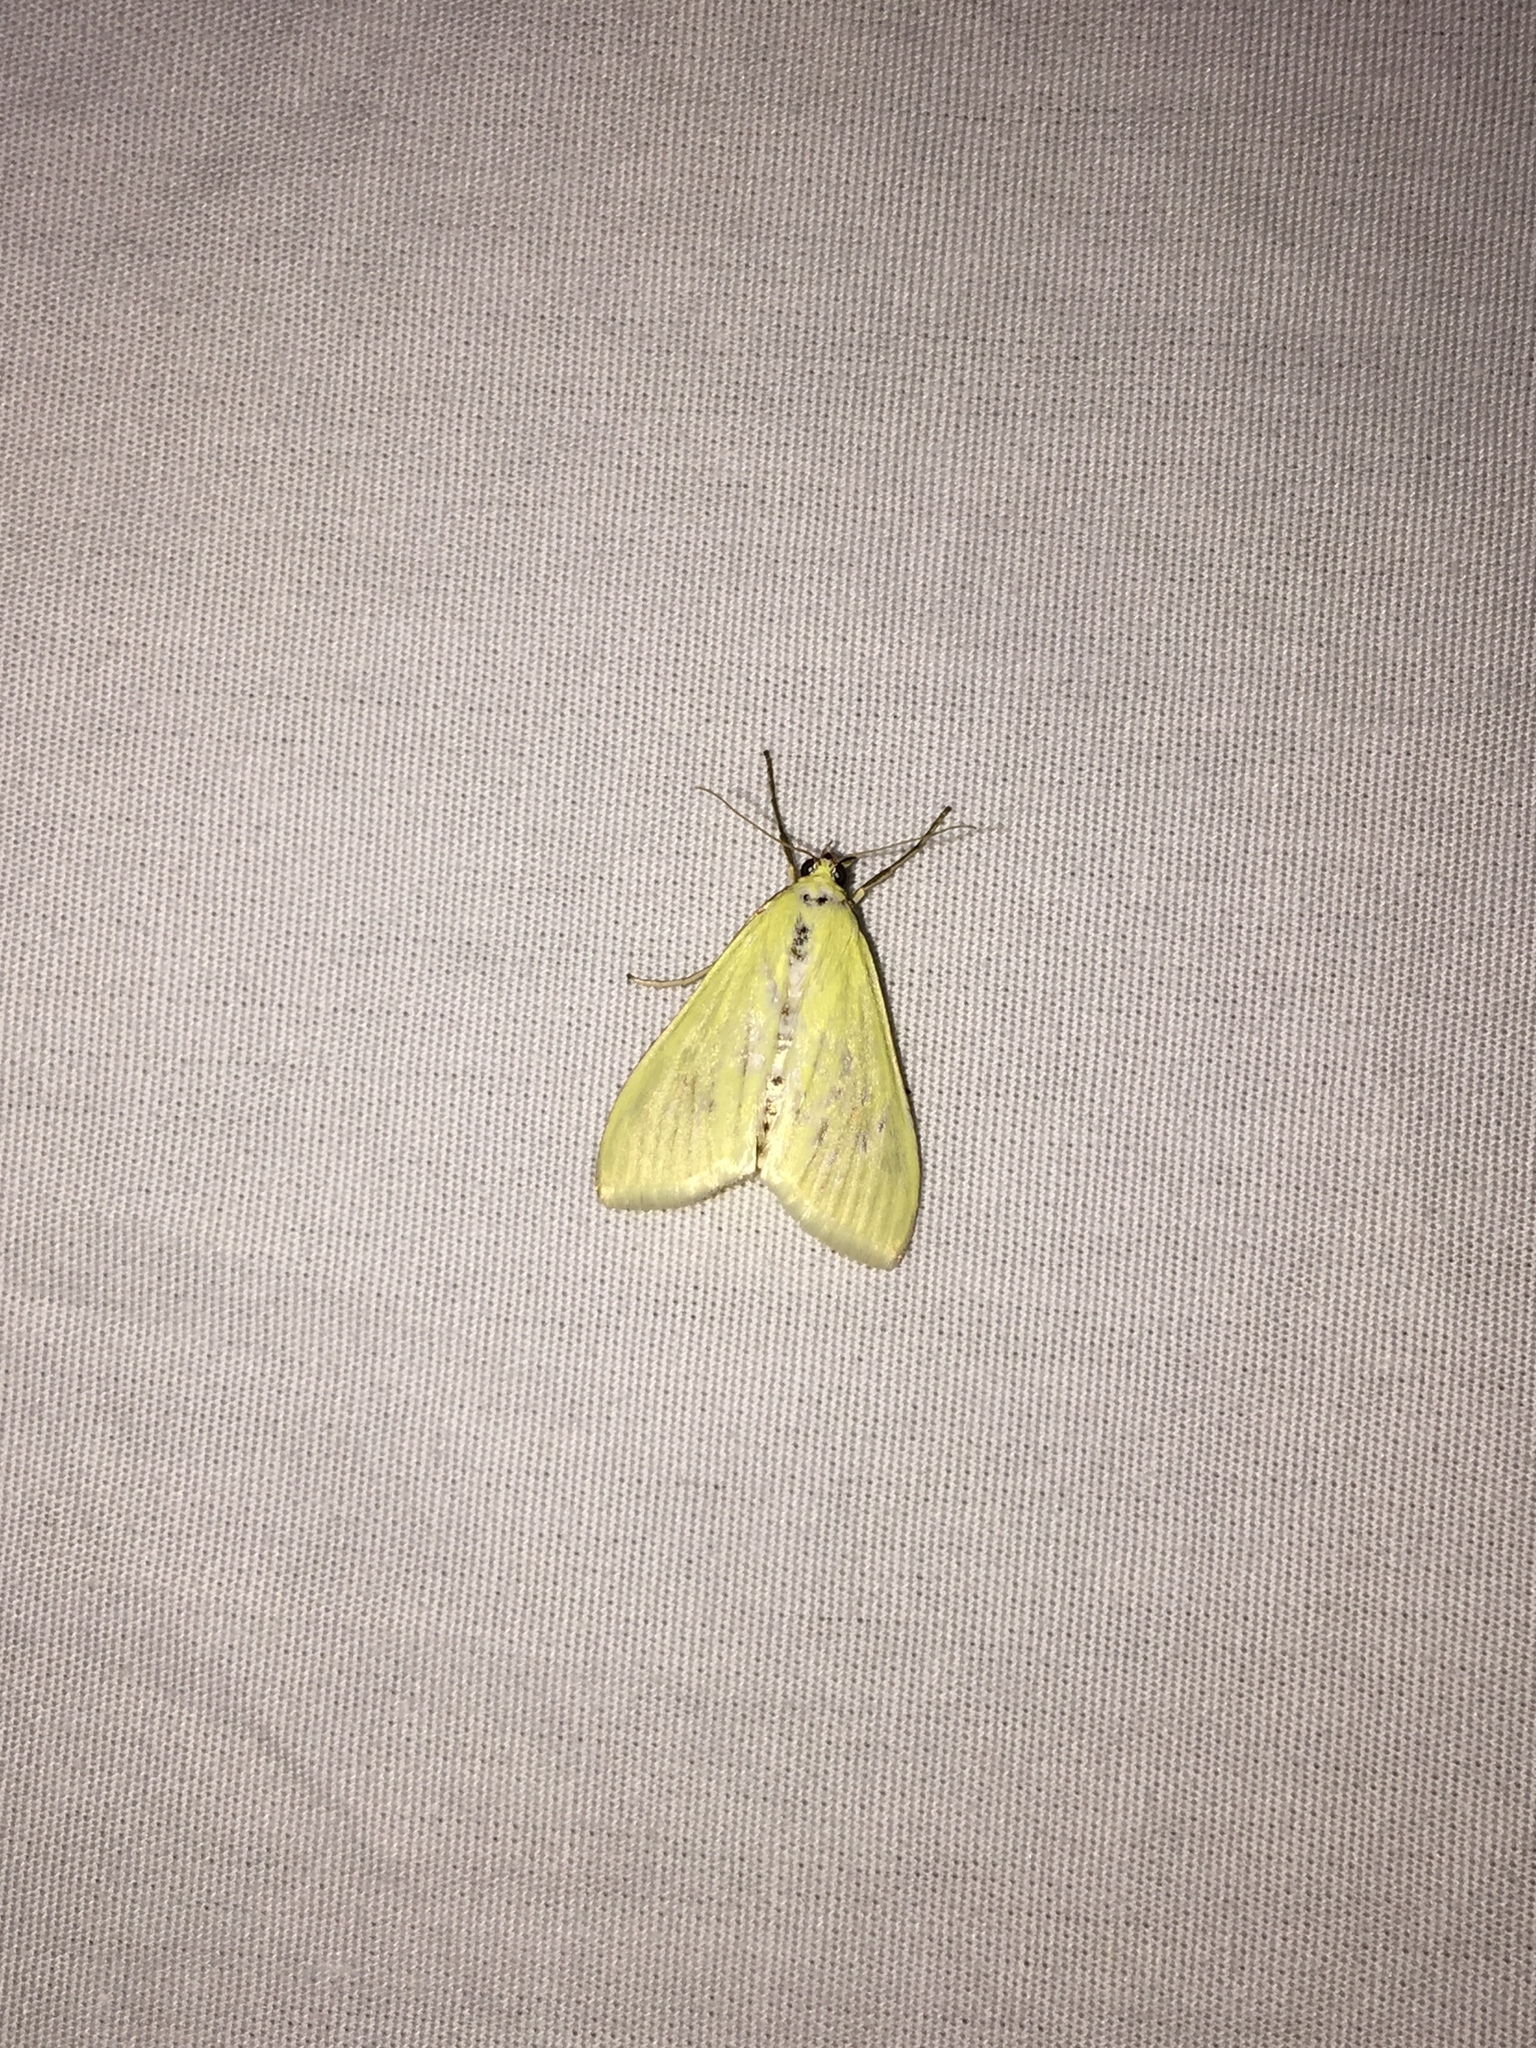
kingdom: Animalia
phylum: Arthropoda
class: Insecta
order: Lepidoptera
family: Crambidae
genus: Sitochroa
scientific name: Sitochroa palealis
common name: Greenish-yellow sitochroa moth
